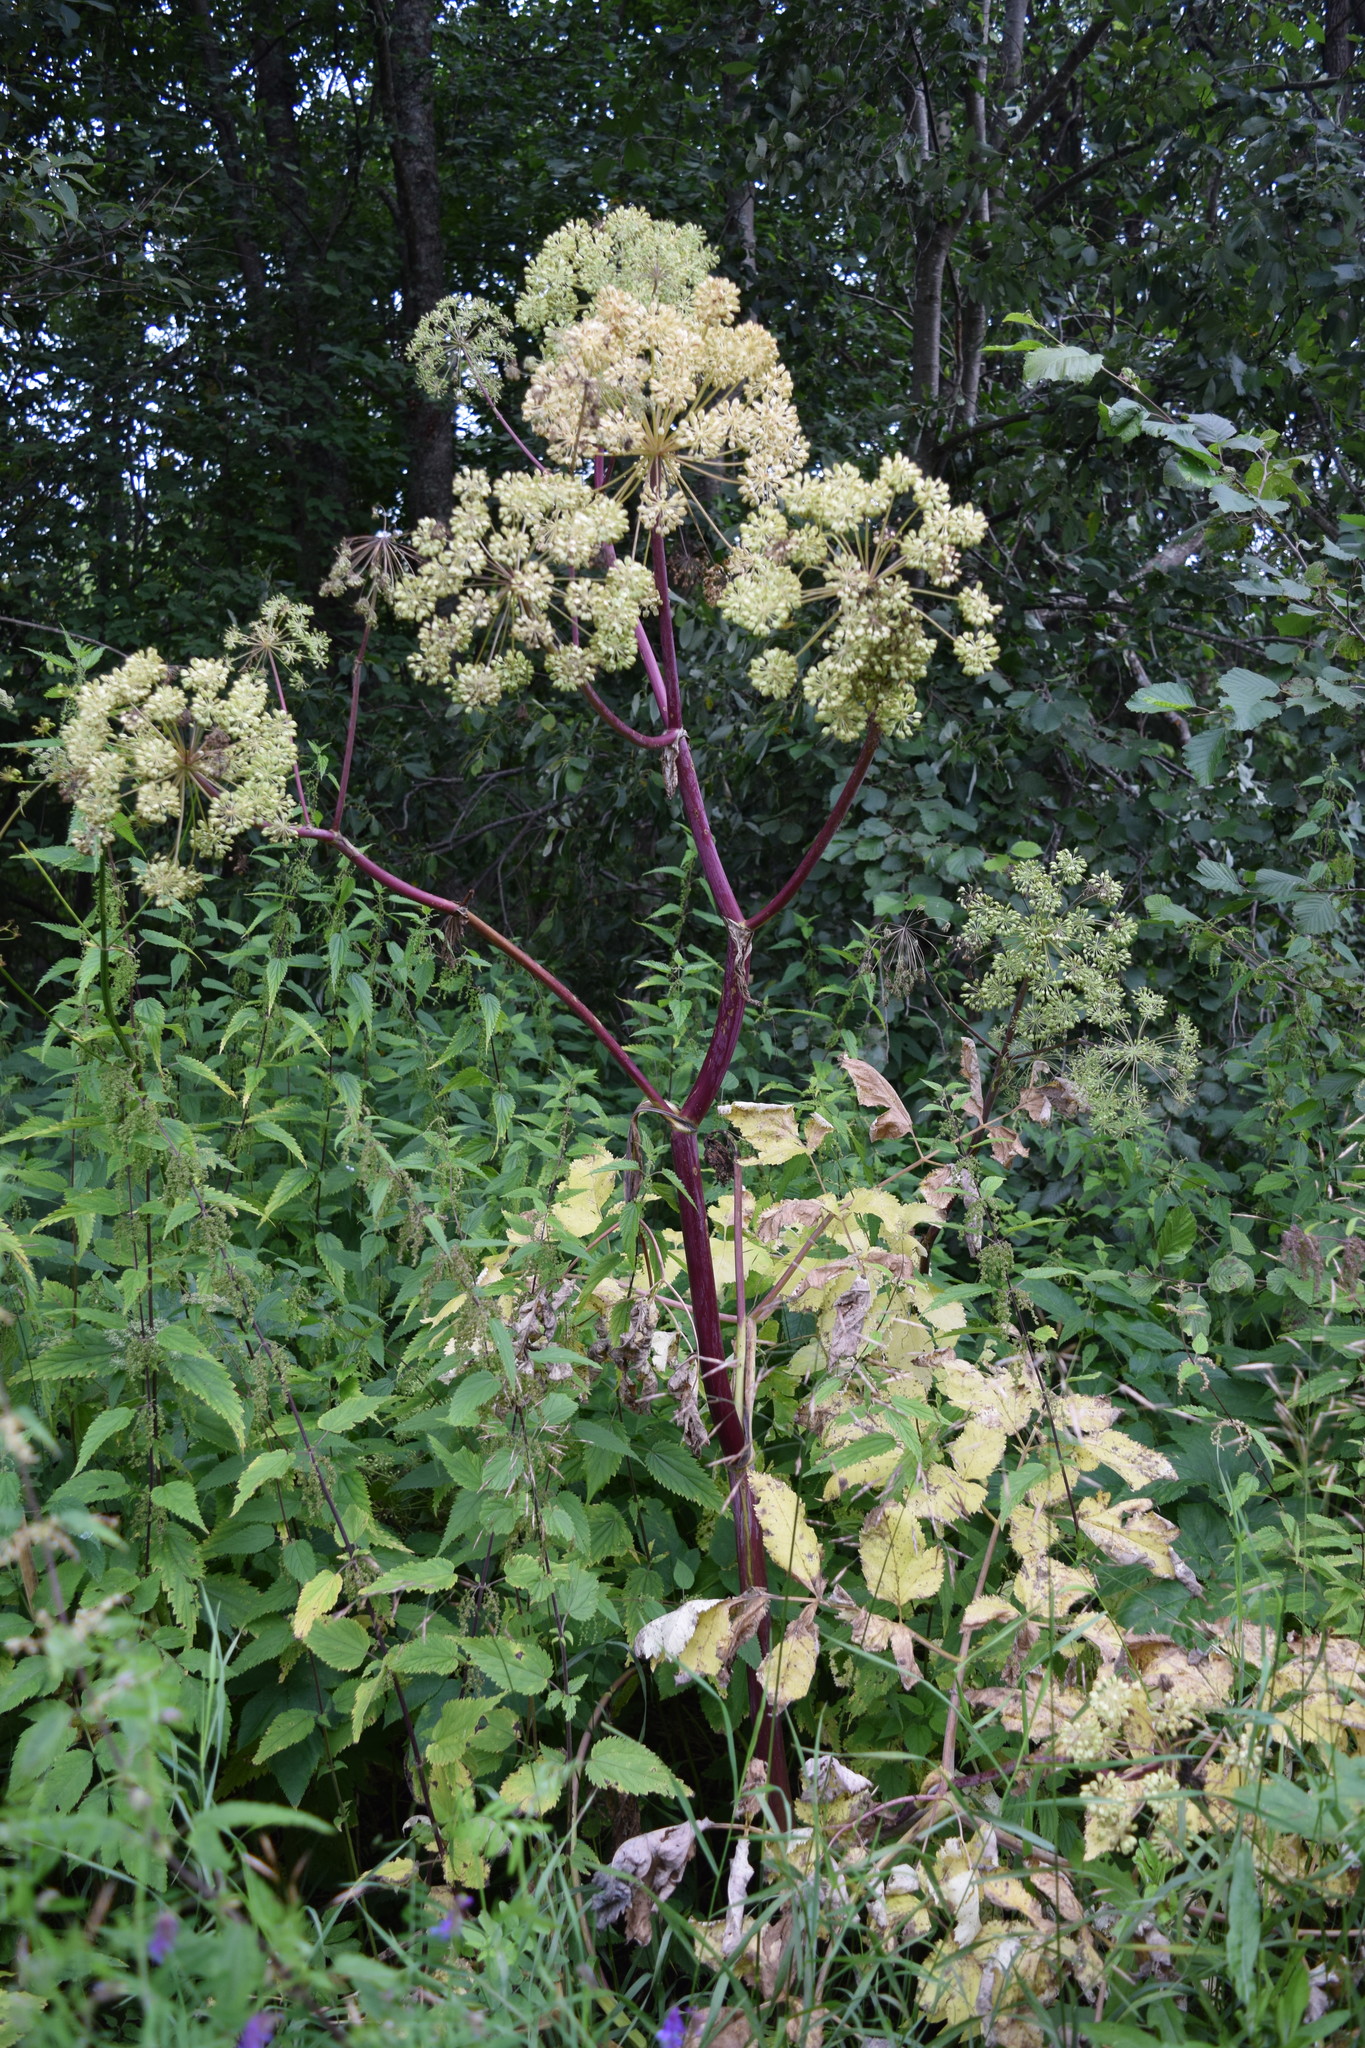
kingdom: Plantae
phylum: Tracheophyta
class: Magnoliopsida
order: Apiales
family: Apiaceae
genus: Angelica
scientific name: Angelica archangelica
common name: Garden angelica
